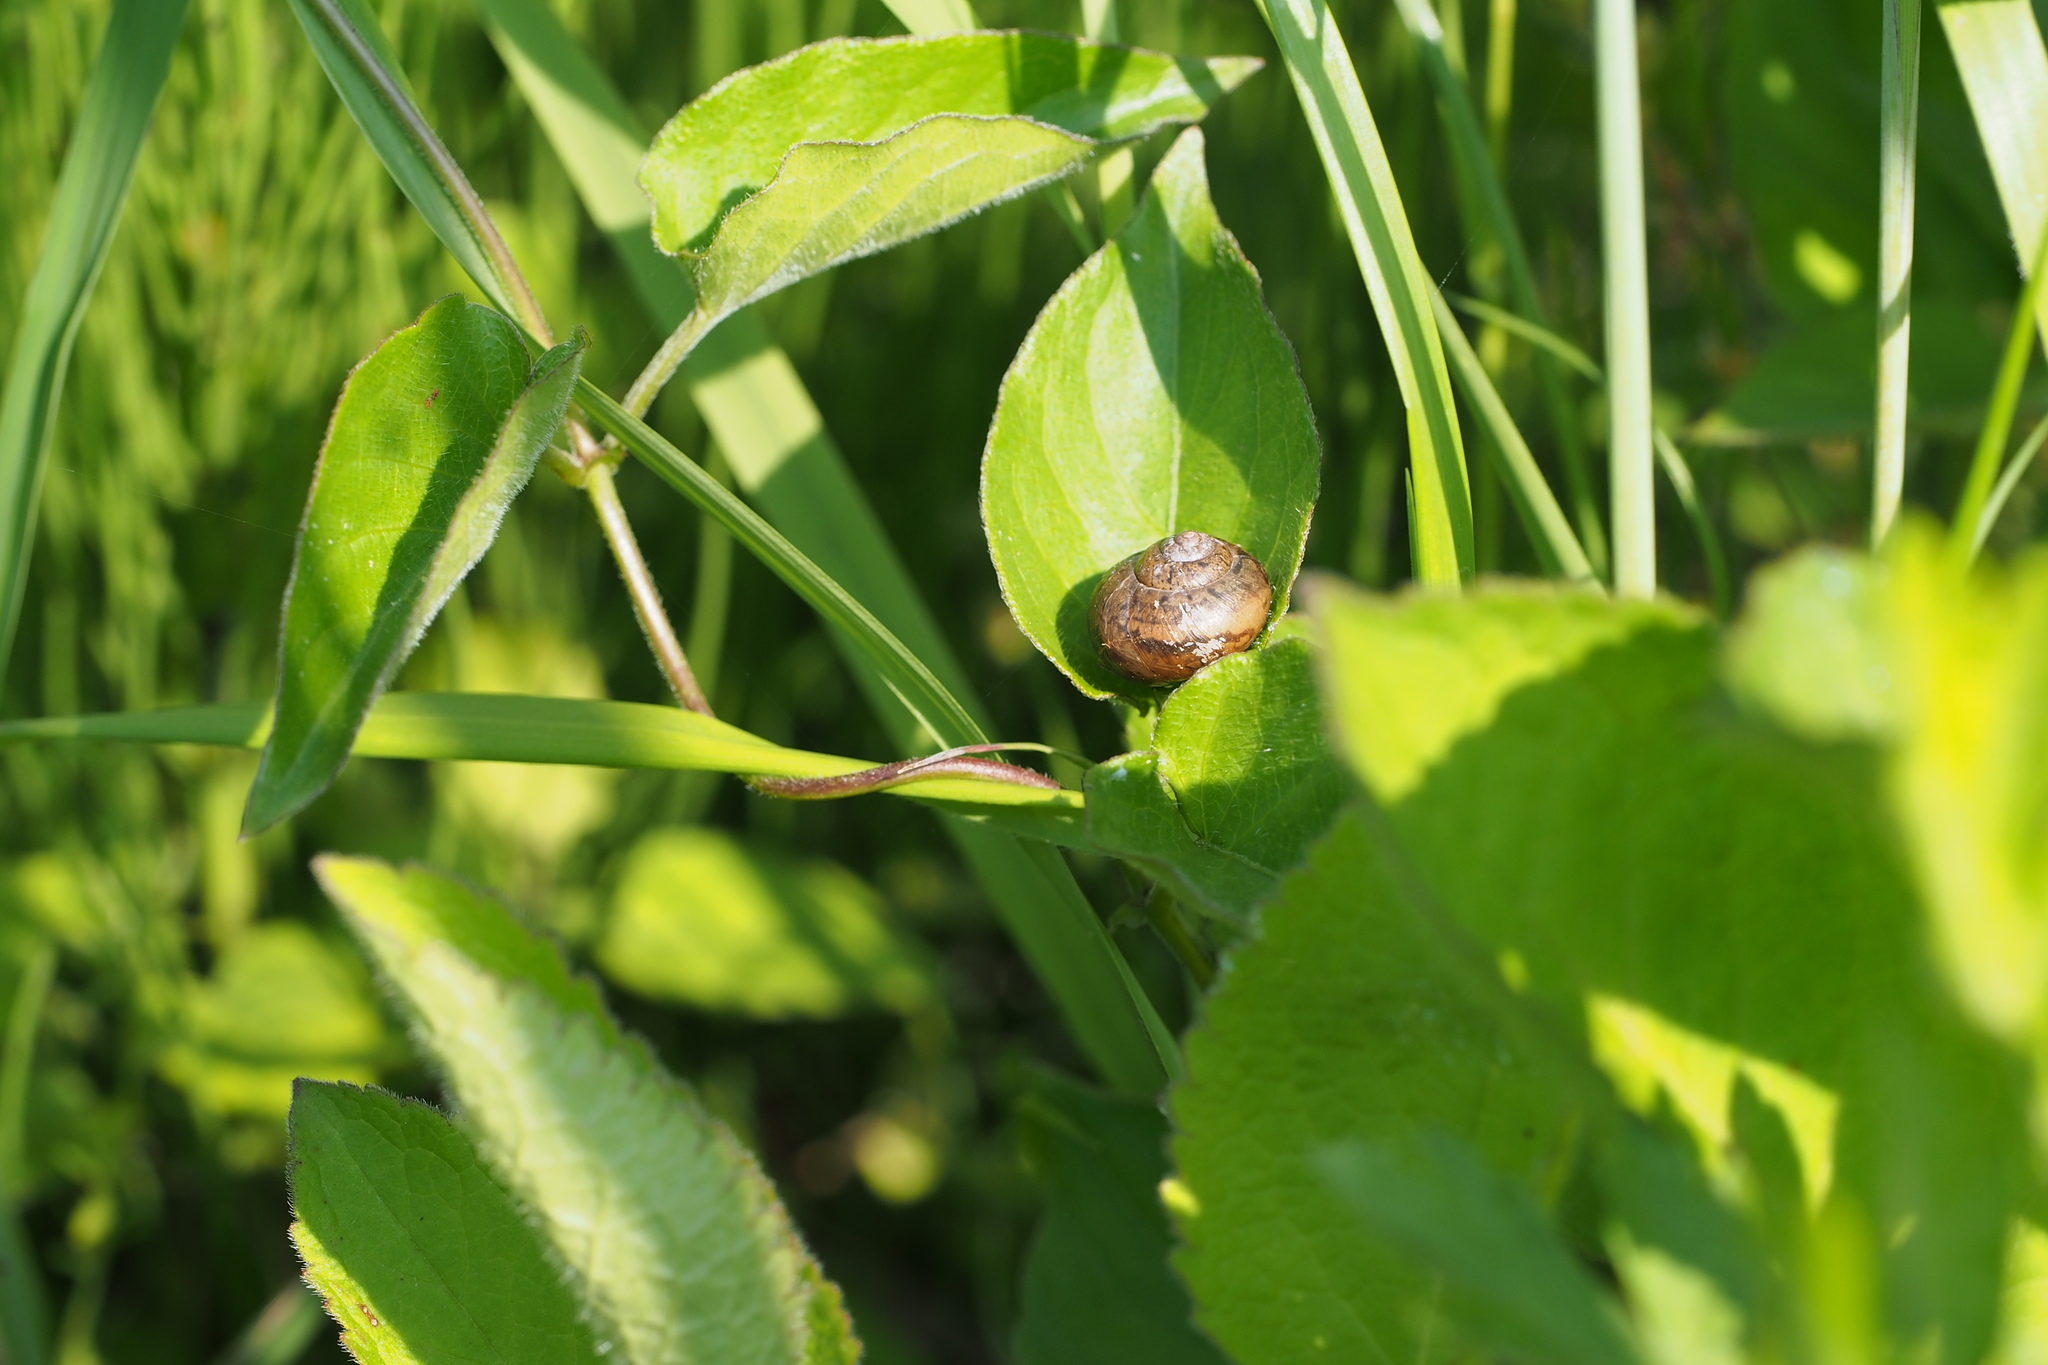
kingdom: Animalia
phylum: Mollusca
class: Gastropoda
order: Stylommatophora
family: Camaenidae
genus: Acusta
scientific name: Acusta sieboldtiana
